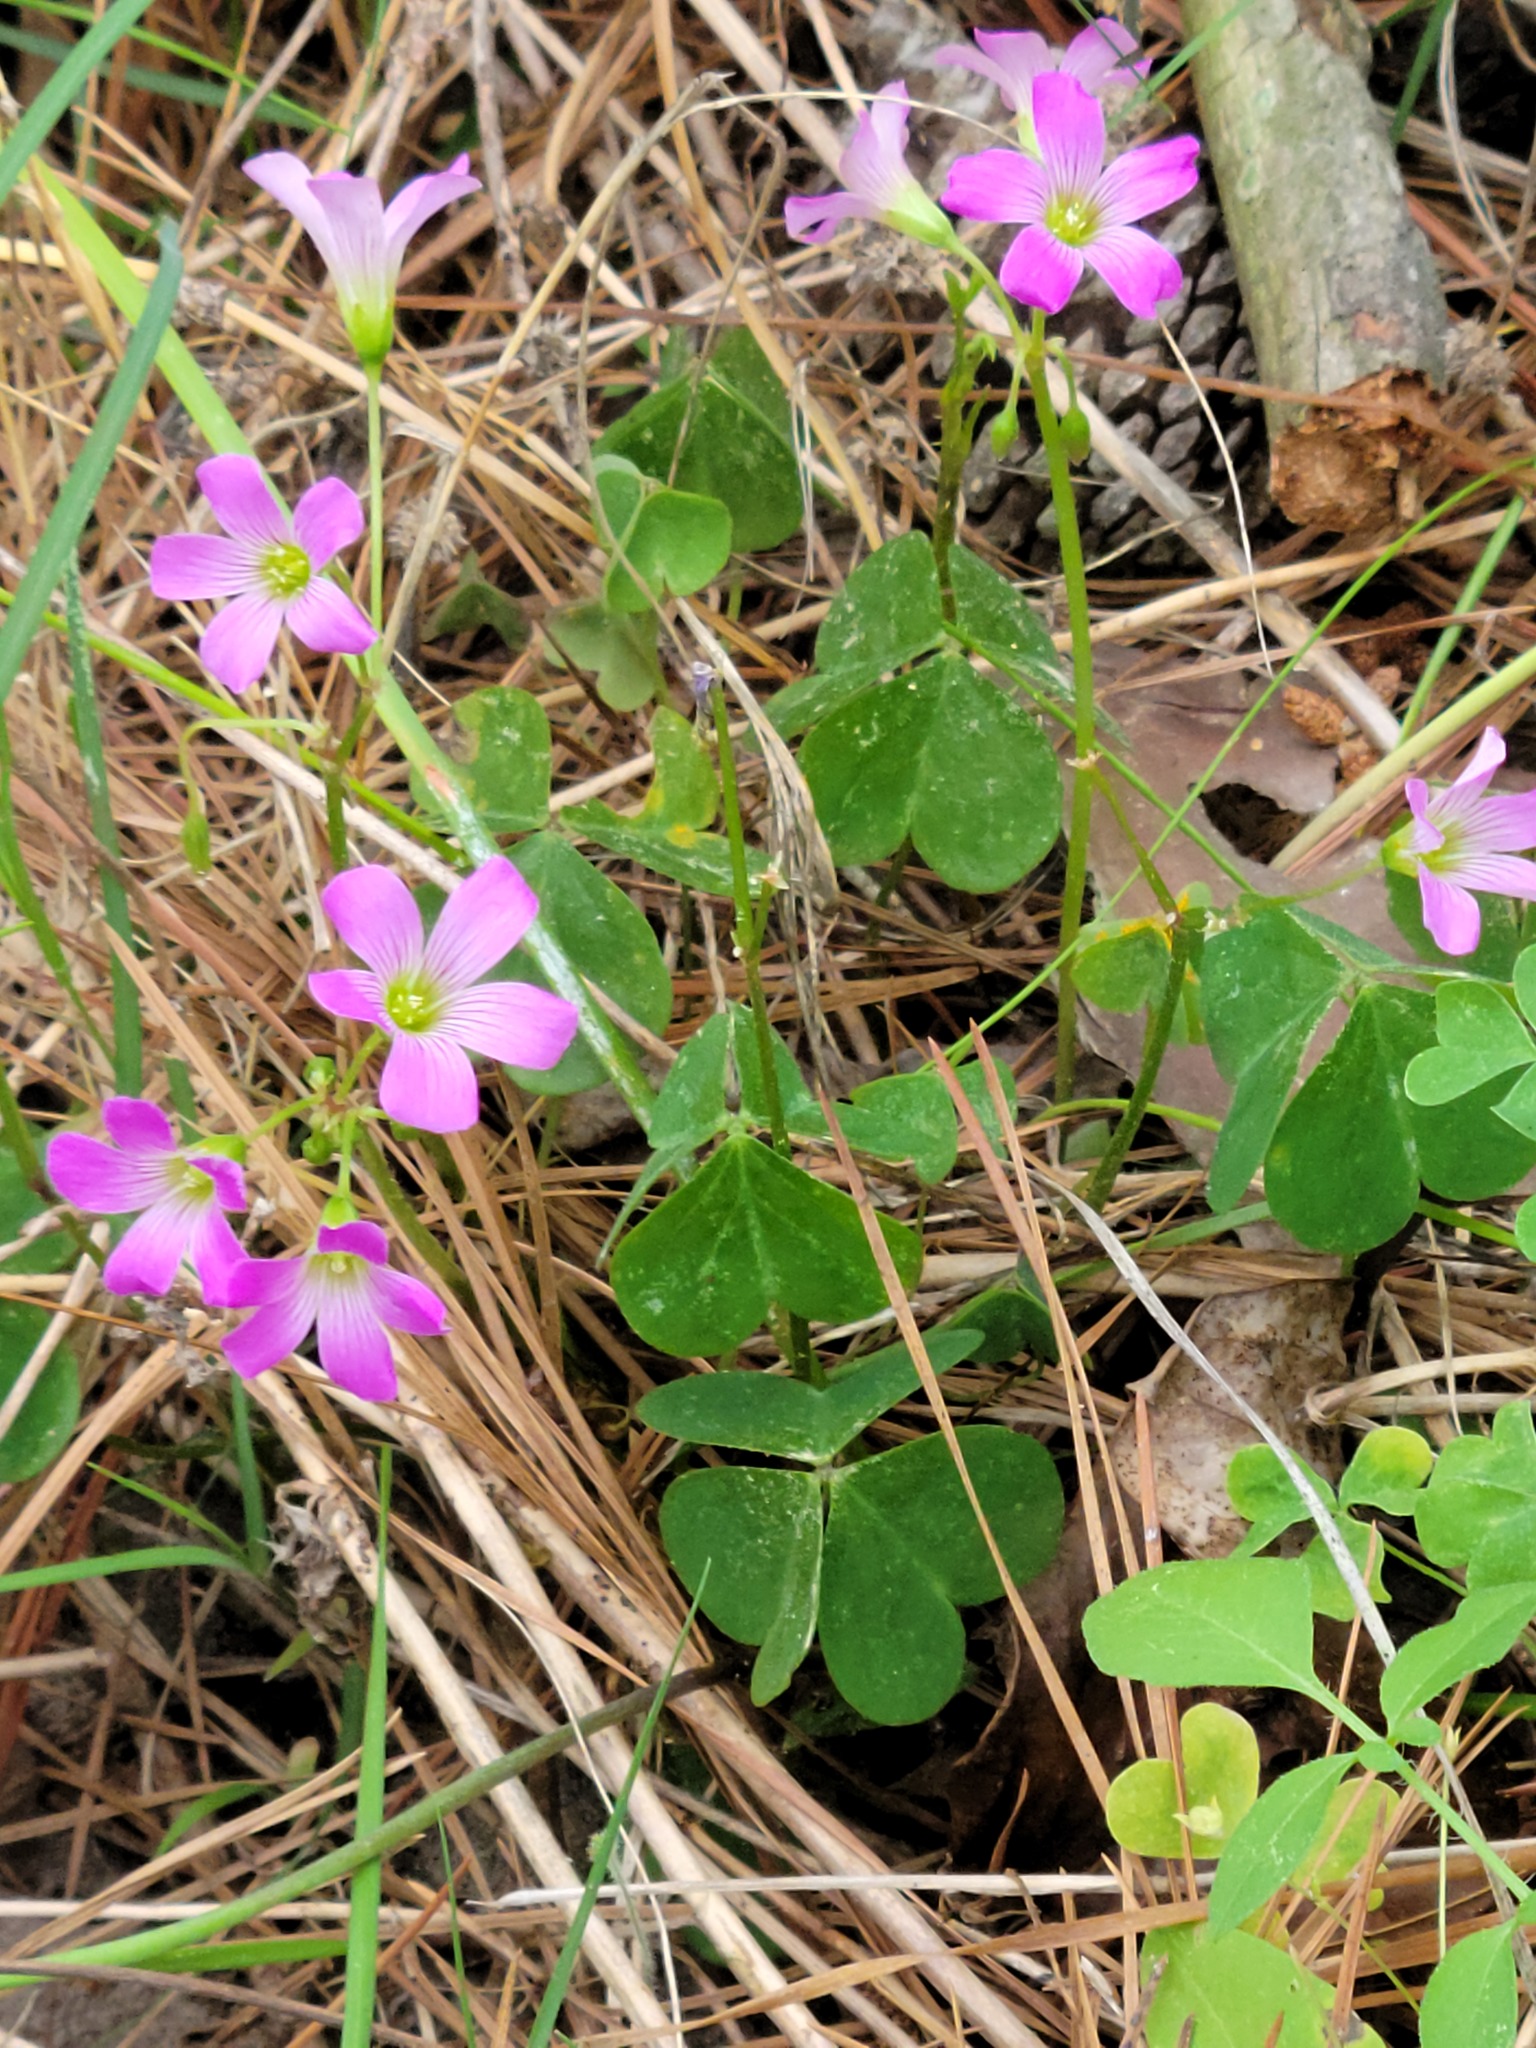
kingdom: Plantae
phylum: Tracheophyta
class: Magnoliopsida
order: Oxalidales
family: Oxalidaceae
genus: Oxalis
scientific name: Oxalis debilis
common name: Large-flowered pink-sorrel
